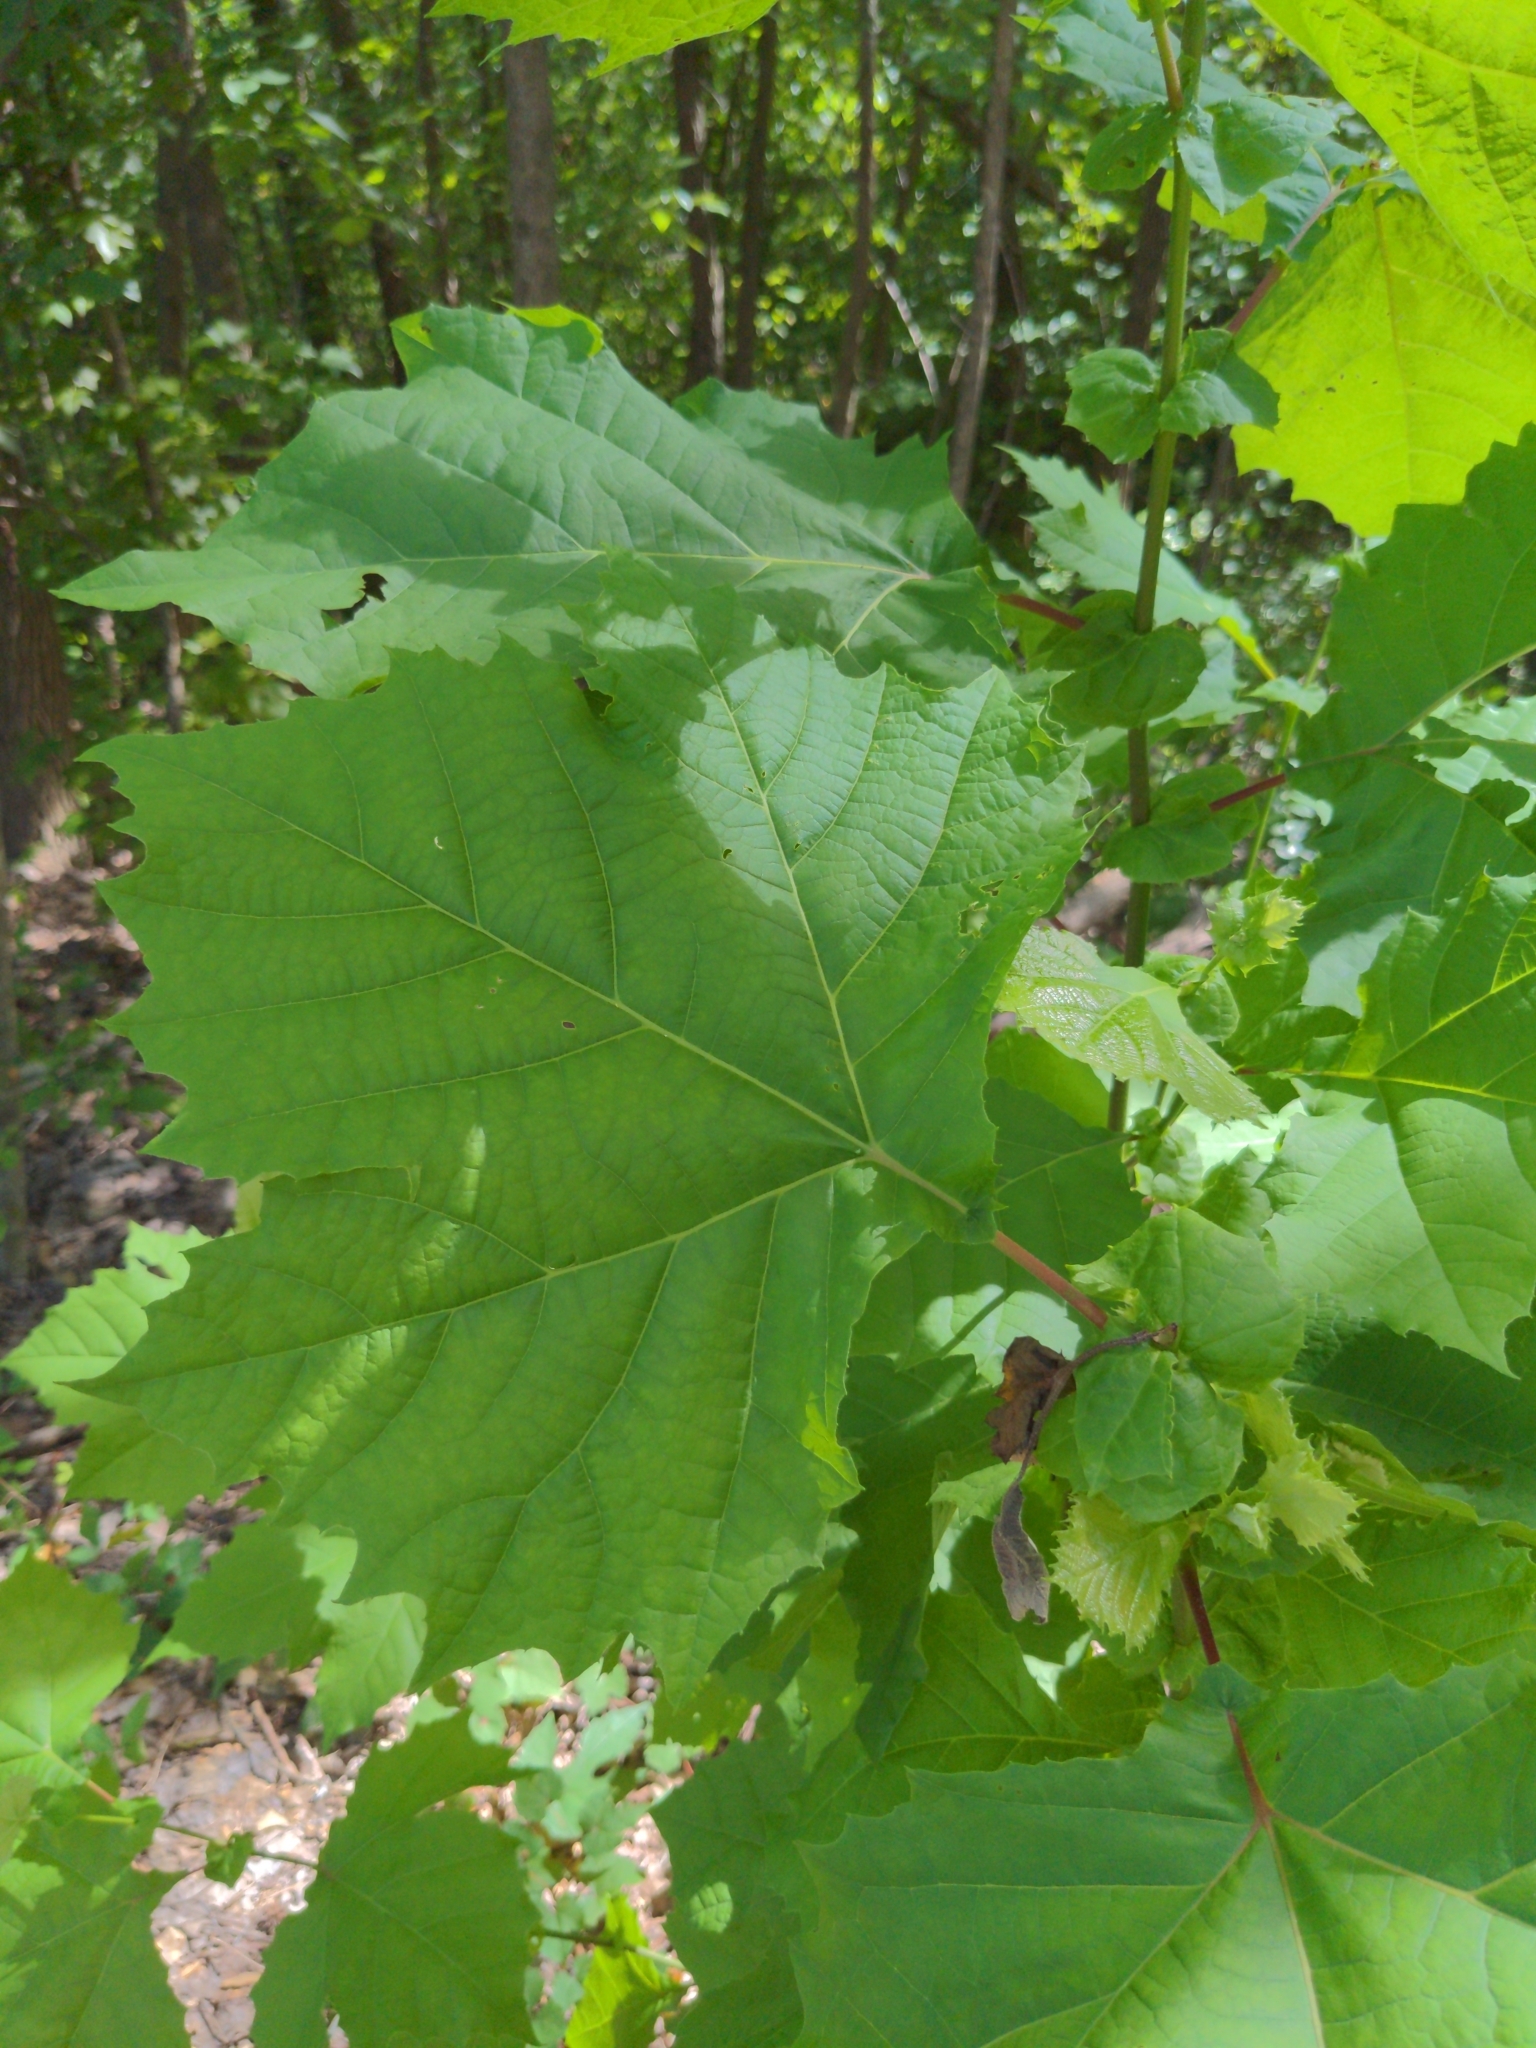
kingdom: Plantae
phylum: Tracheophyta
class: Magnoliopsida
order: Proteales
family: Platanaceae
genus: Platanus
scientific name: Platanus occidentalis
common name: American sycamore
